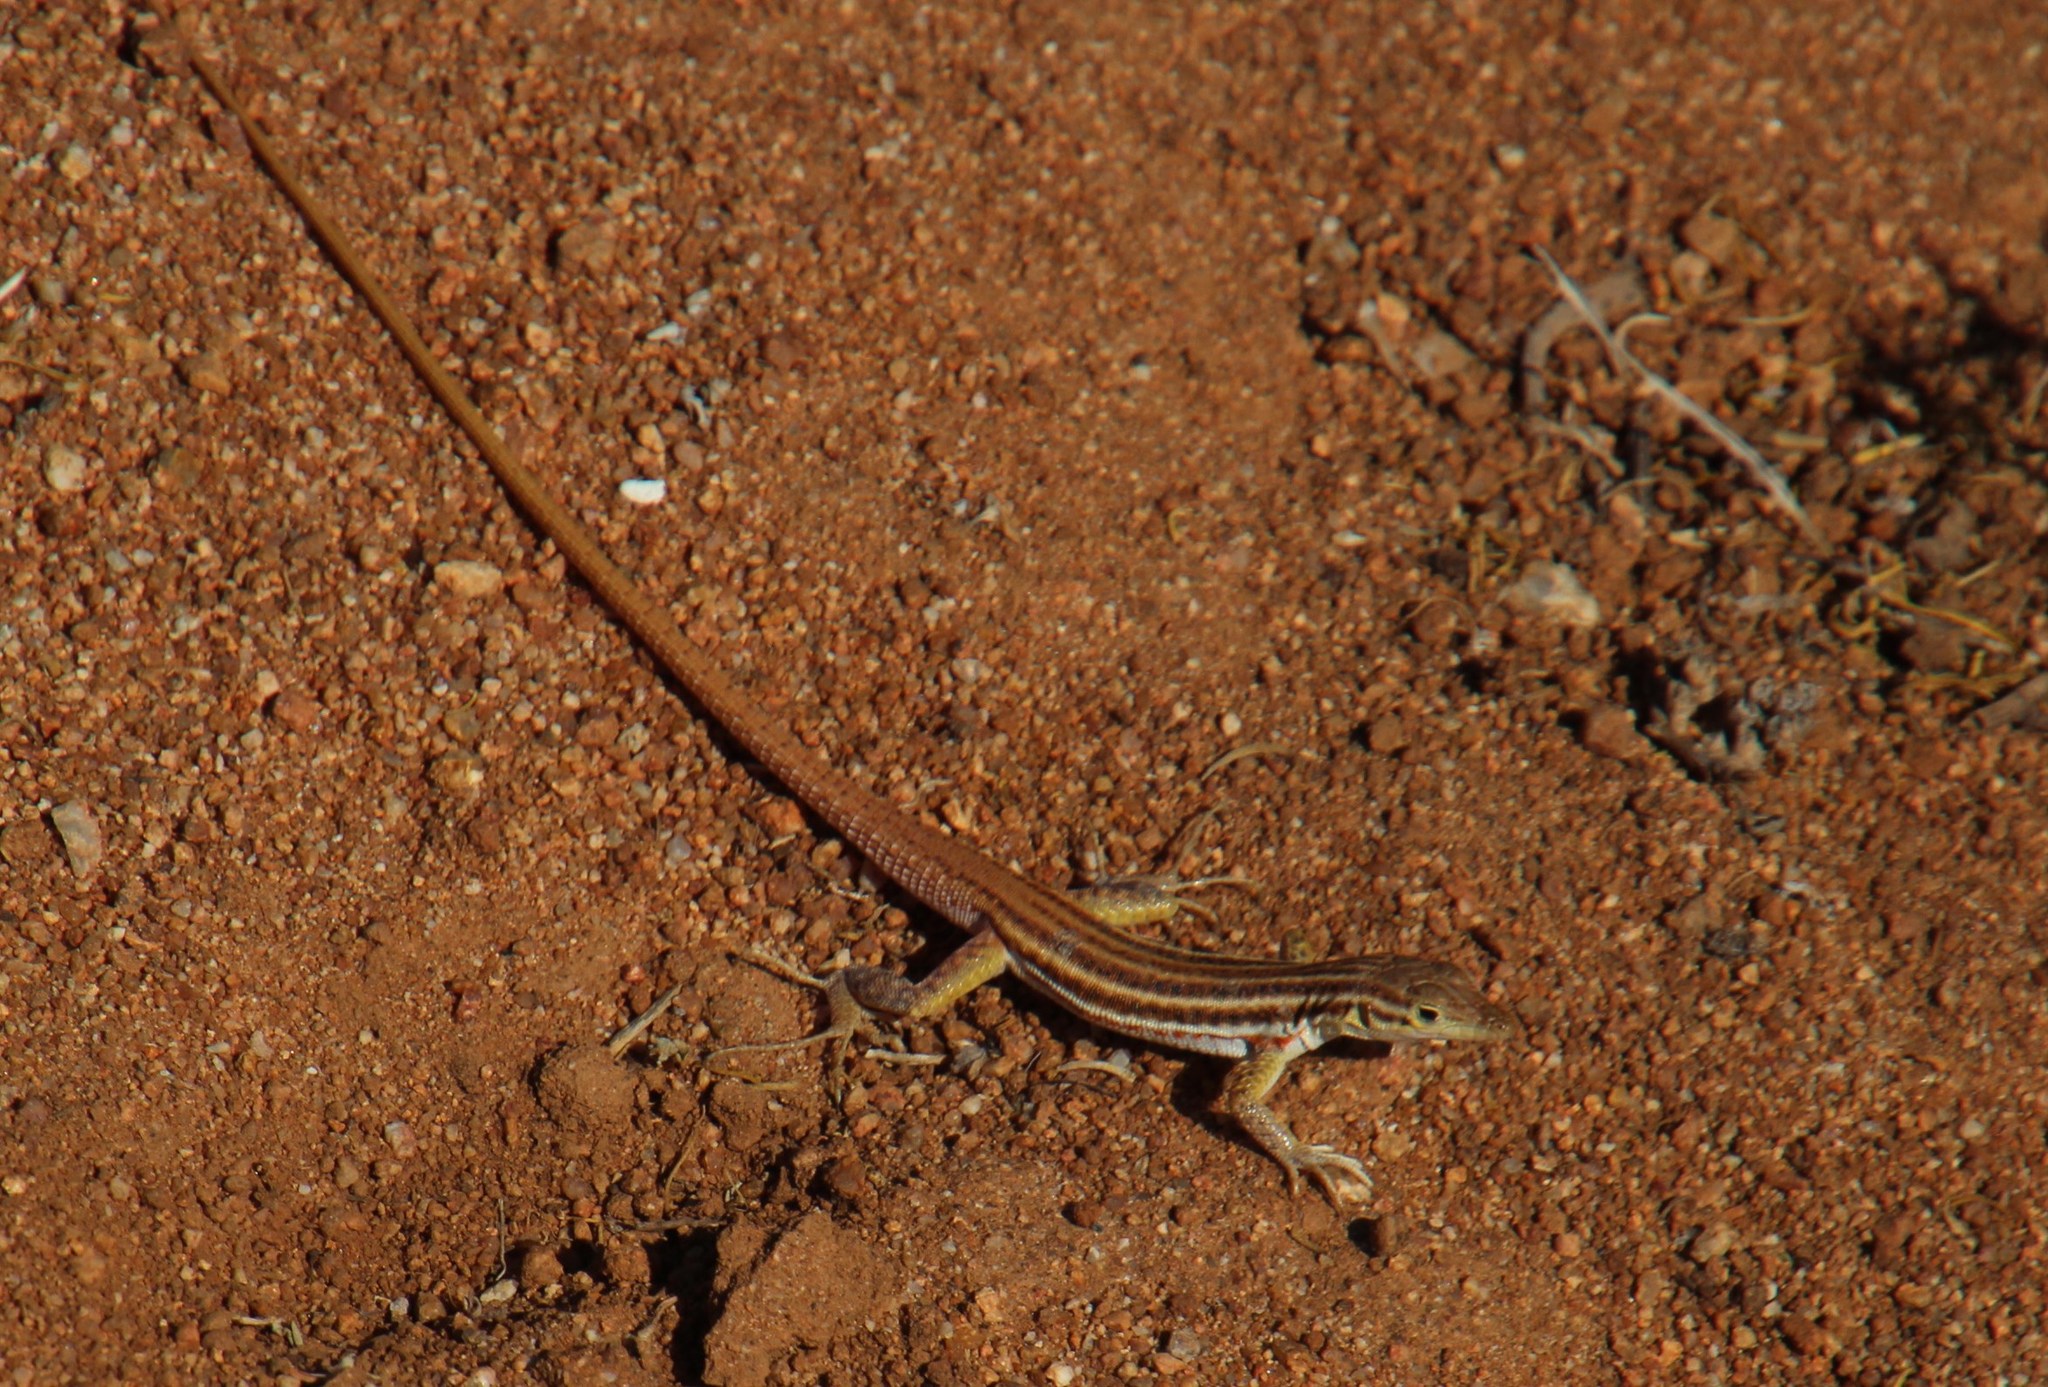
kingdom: Animalia
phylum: Chordata
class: Squamata
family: Lacertidae
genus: Pedioplanis
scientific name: Pedioplanis namaquensis
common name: Namaqua sand lizard
